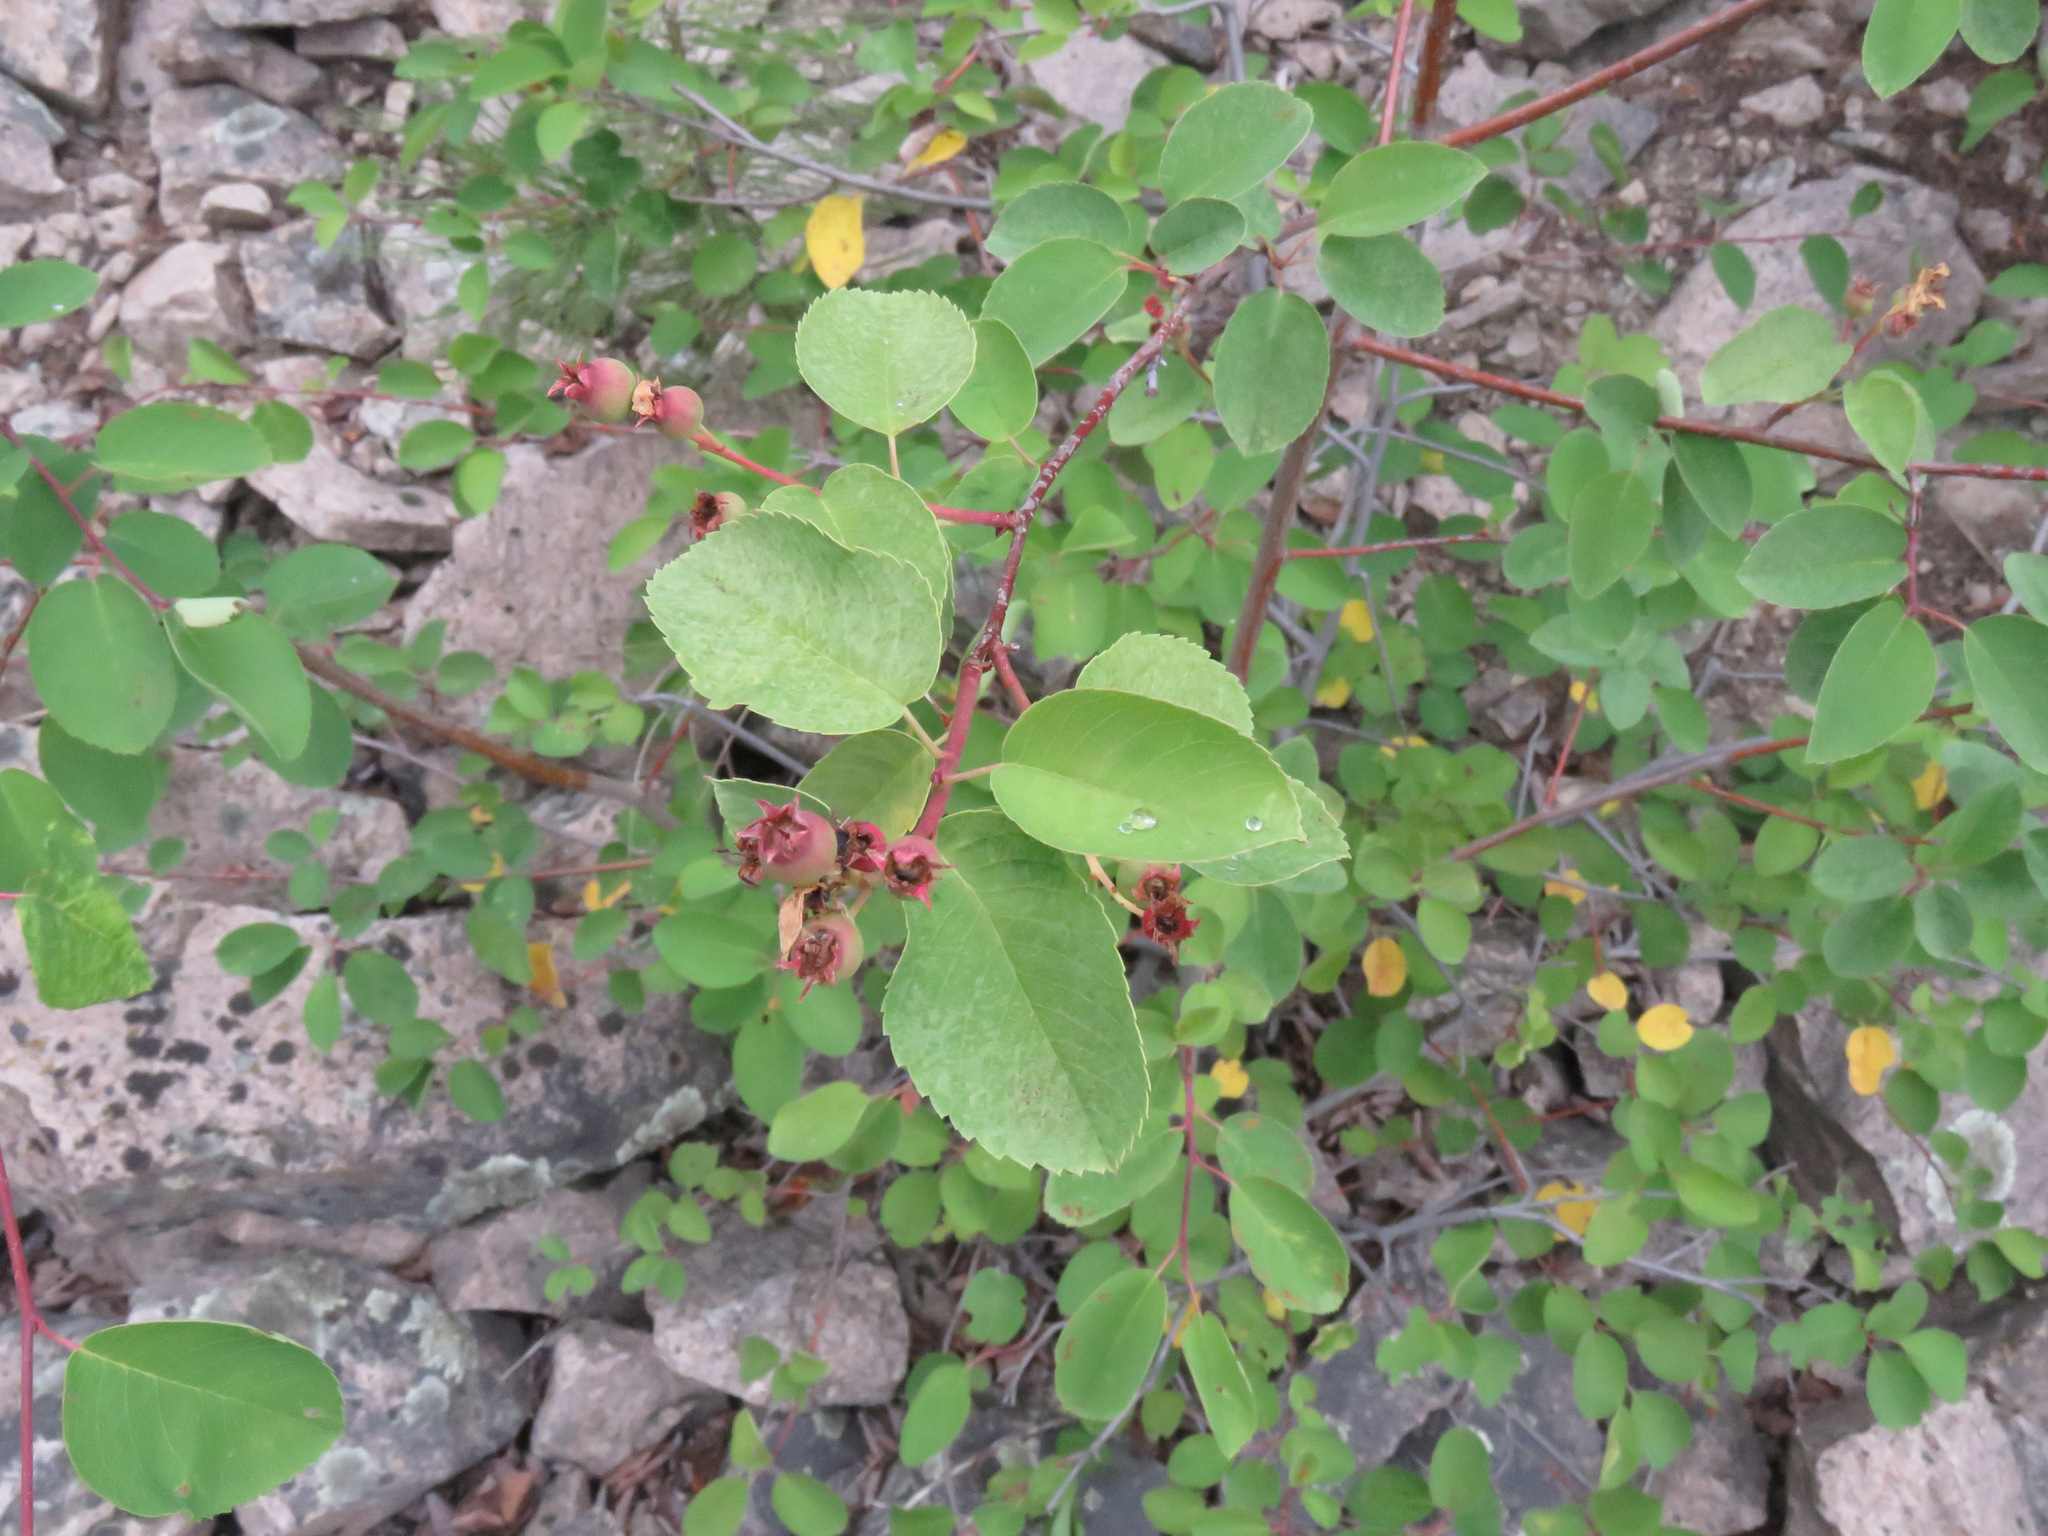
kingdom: Plantae
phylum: Tracheophyta
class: Magnoliopsida
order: Rosales
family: Rosaceae
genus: Amelanchier
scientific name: Amelanchier alnifolia
